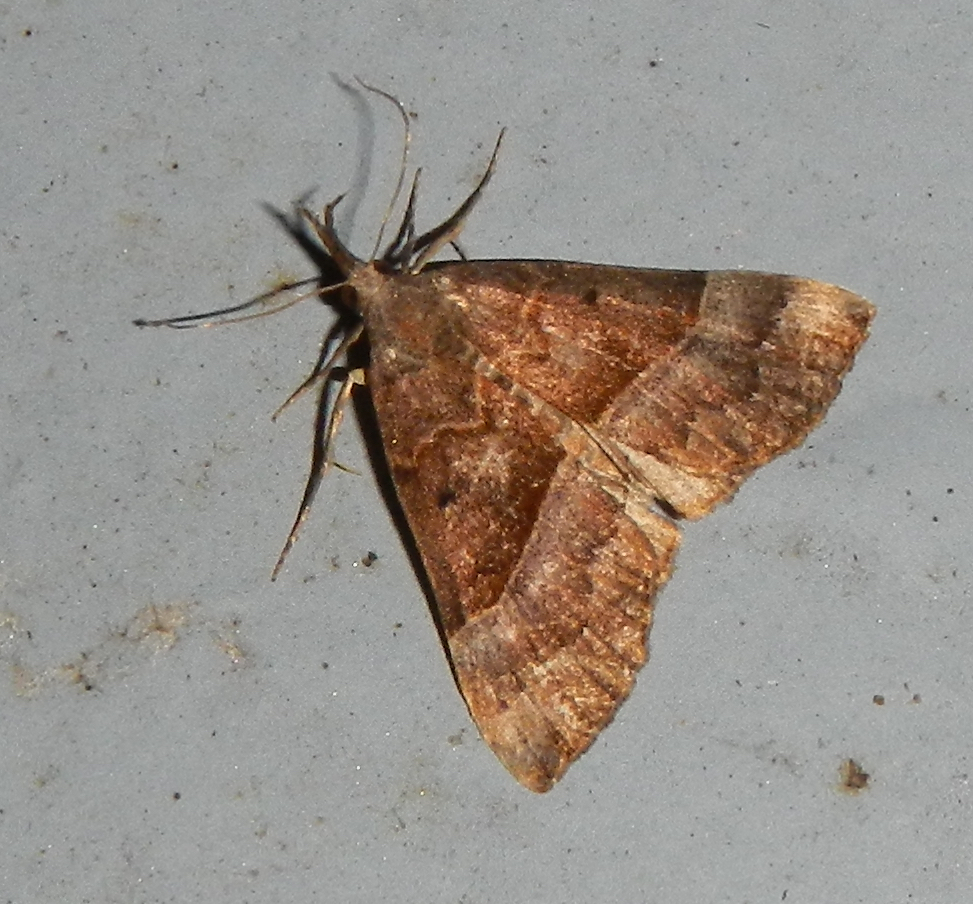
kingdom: Animalia
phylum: Arthropoda
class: Insecta
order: Lepidoptera
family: Erebidae
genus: Hypena
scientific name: Hypena eductalis
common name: Red-footed snout
